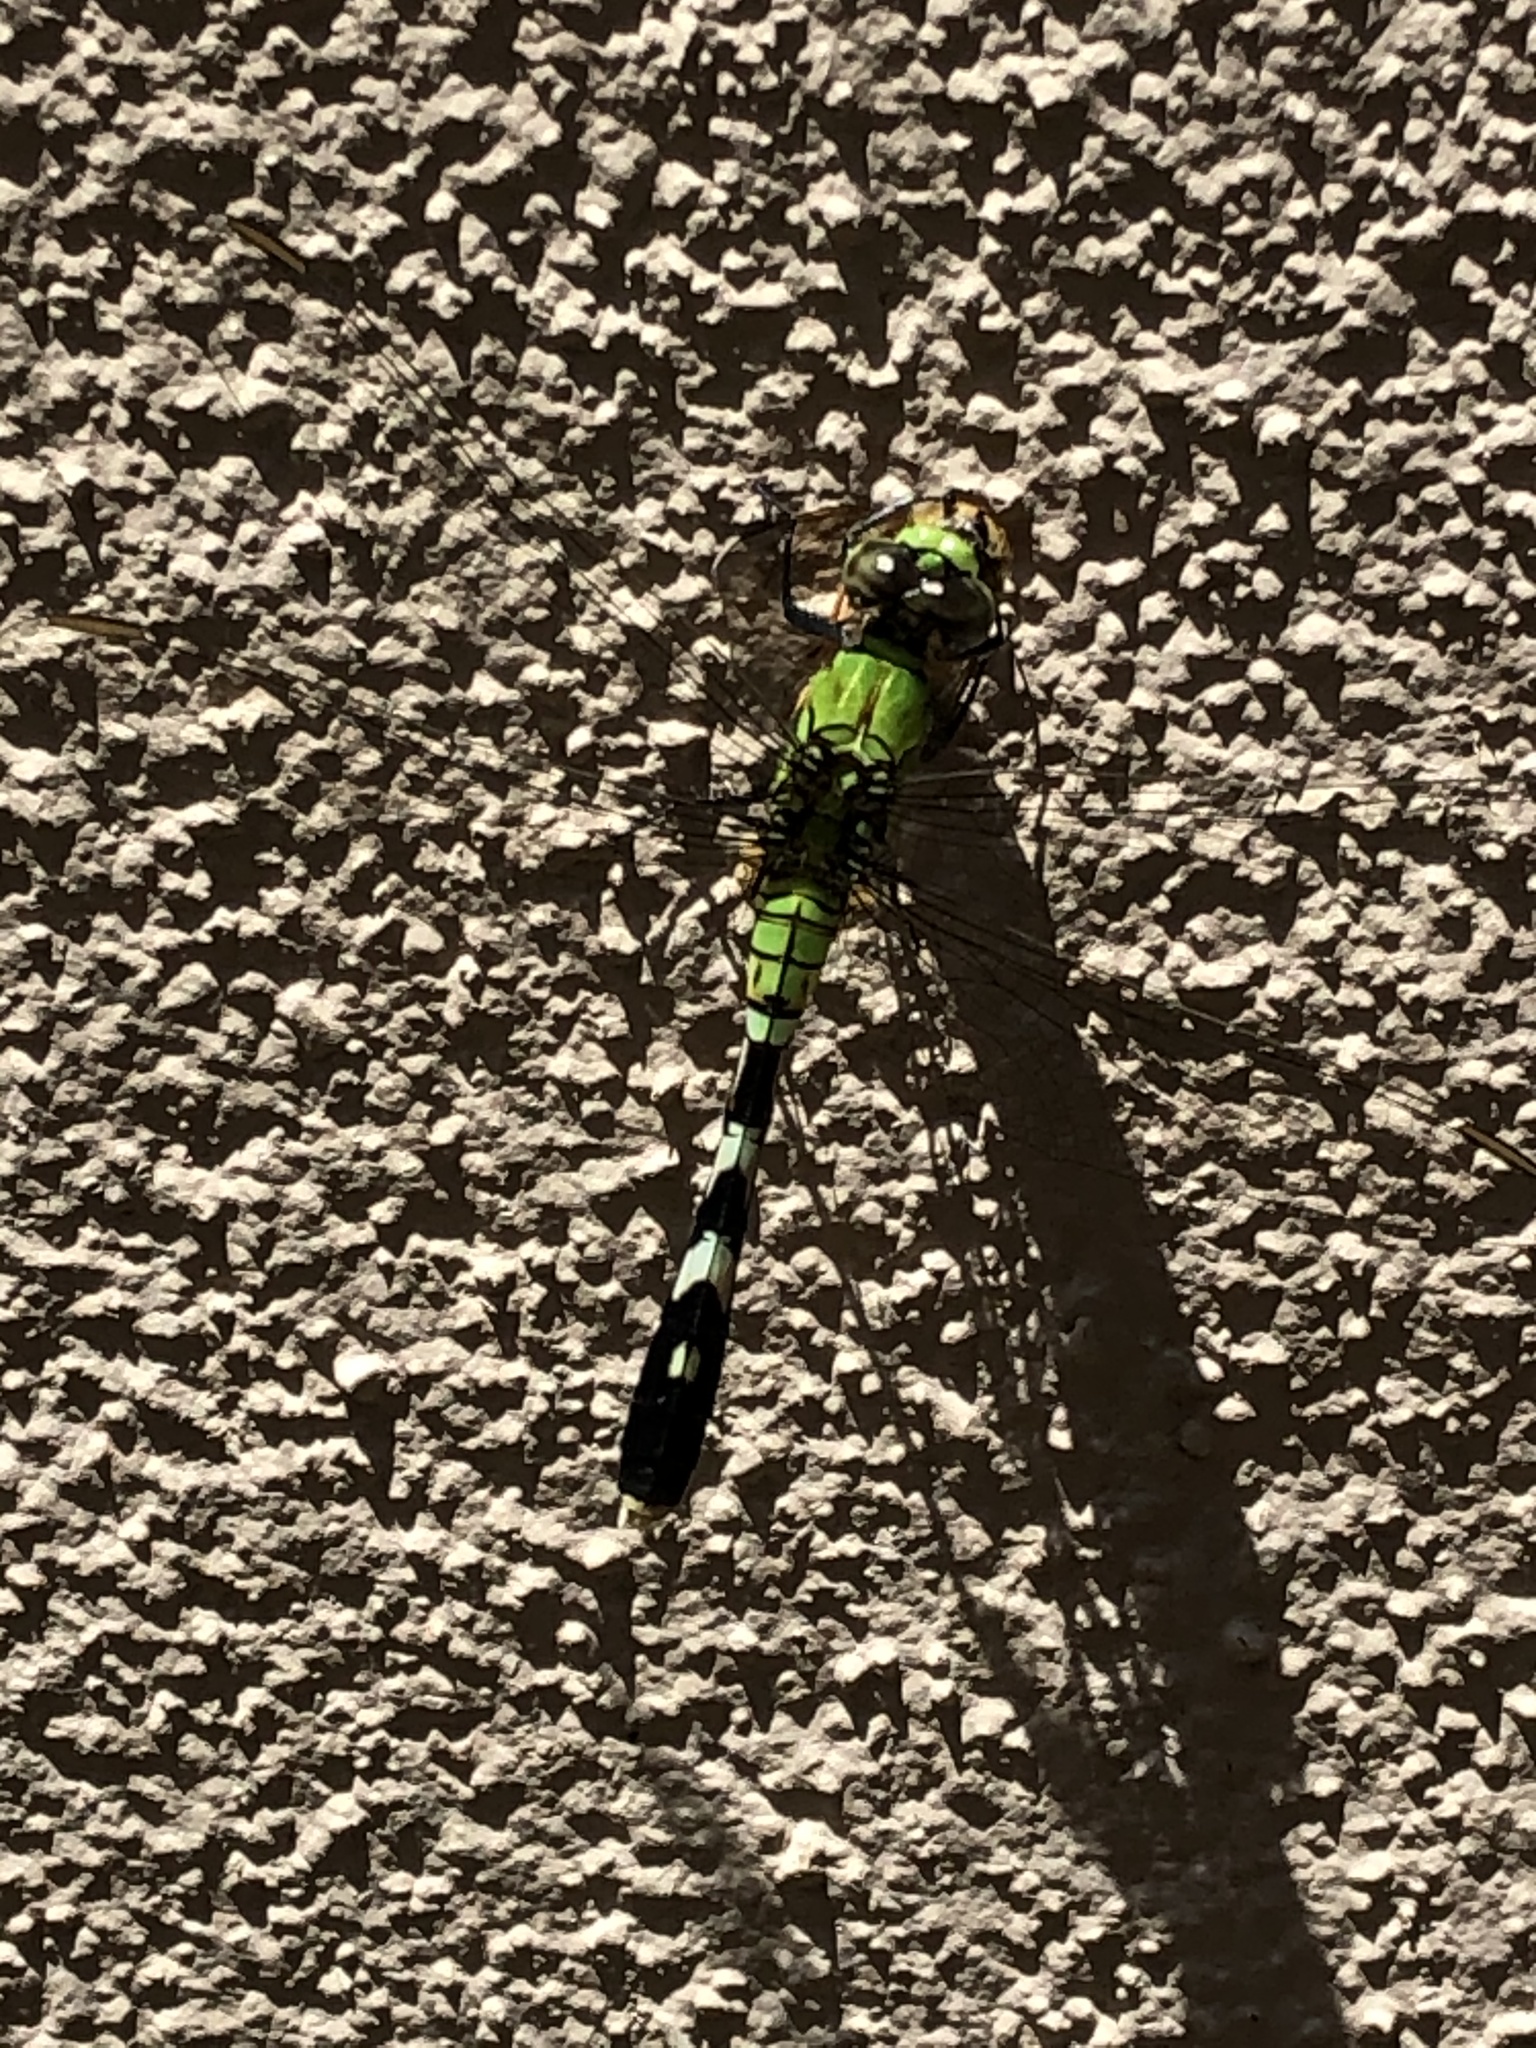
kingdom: Animalia
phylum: Arthropoda
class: Insecta
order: Odonata
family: Libellulidae
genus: Erythemis
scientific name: Erythemis simplicicollis
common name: Eastern pondhawk
